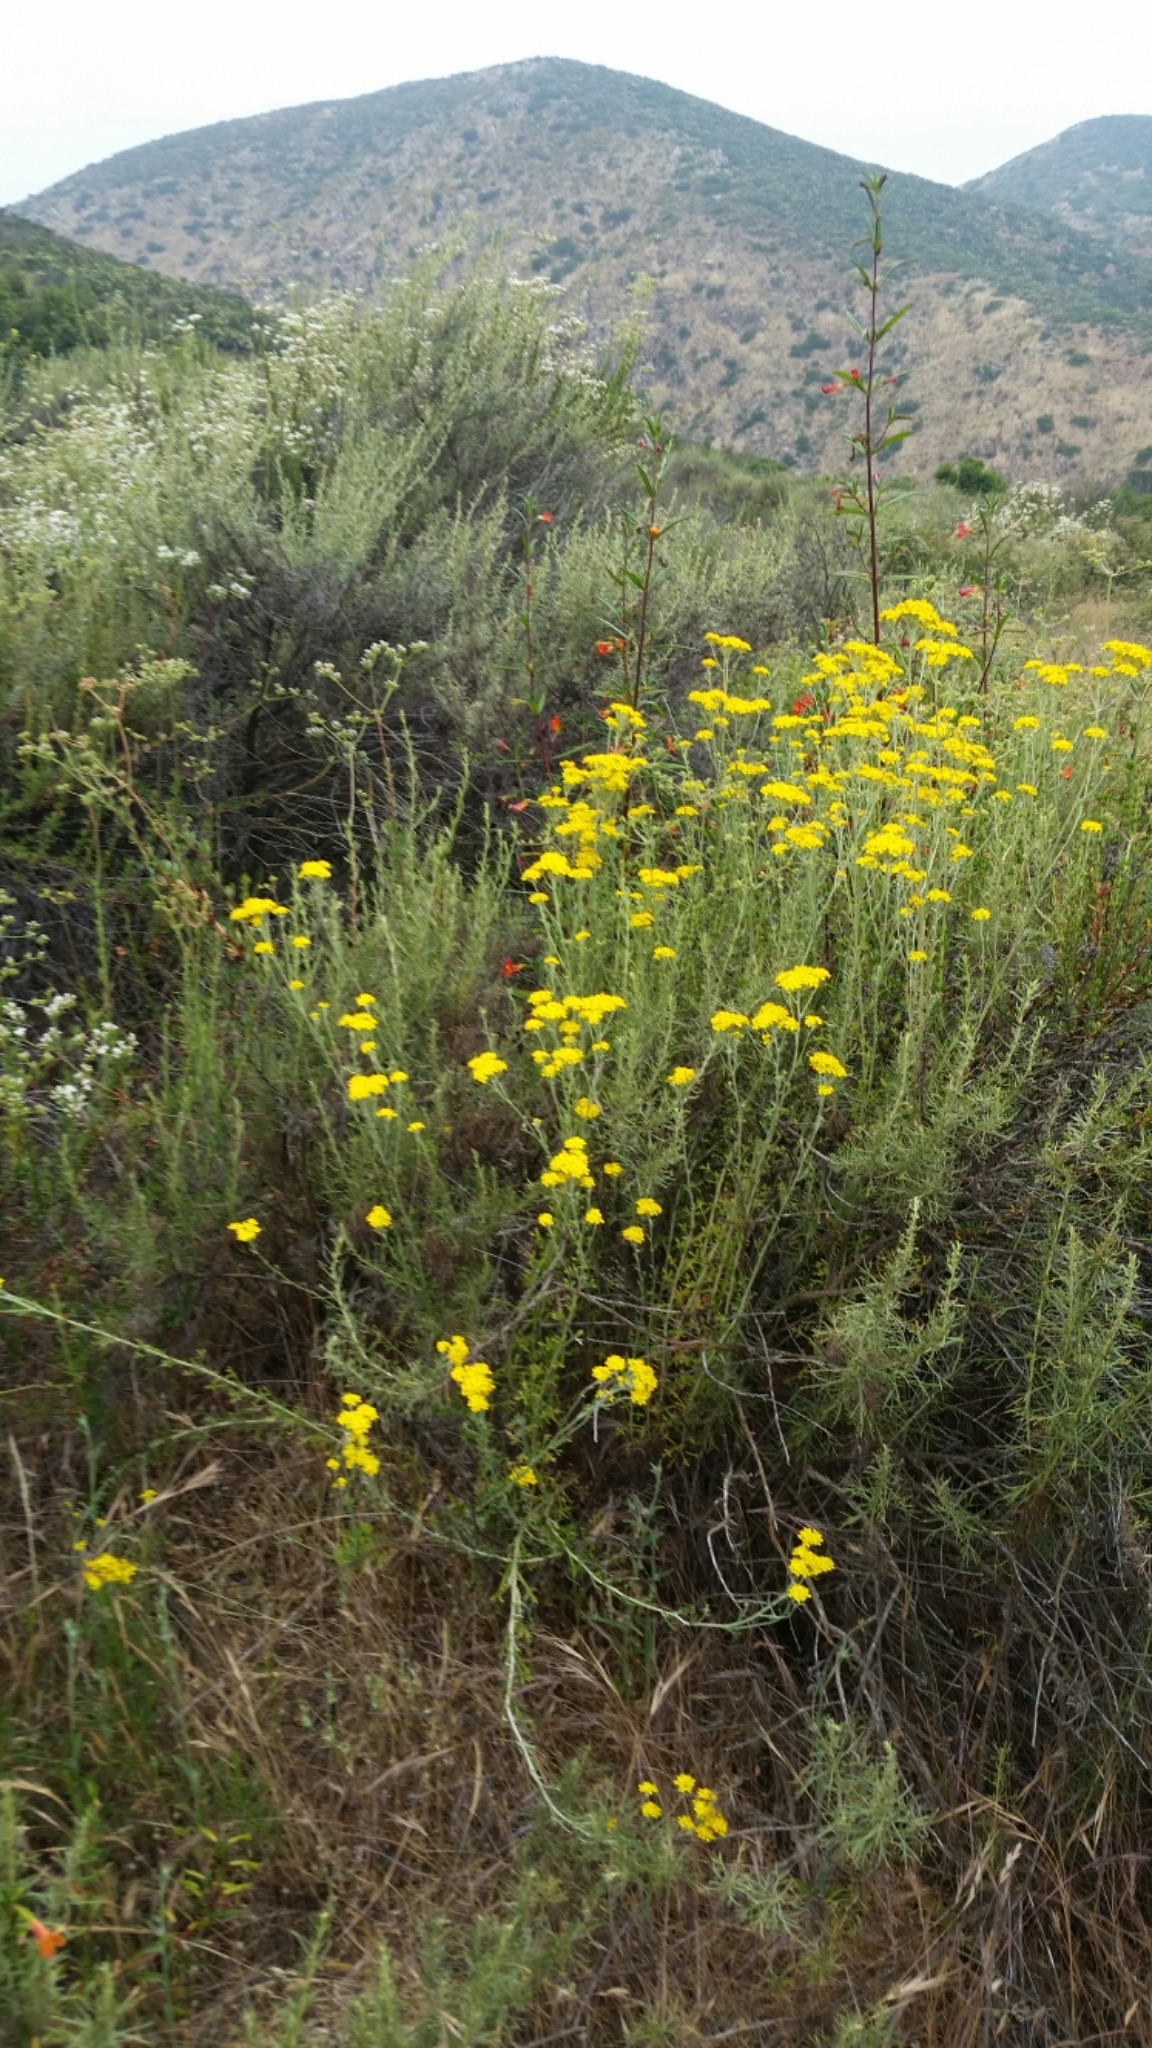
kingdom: Plantae
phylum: Tracheophyta
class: Magnoliopsida
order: Asterales
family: Asteraceae
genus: Eriophyllum
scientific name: Eriophyllum confertiflorum
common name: Golden-yarrow
